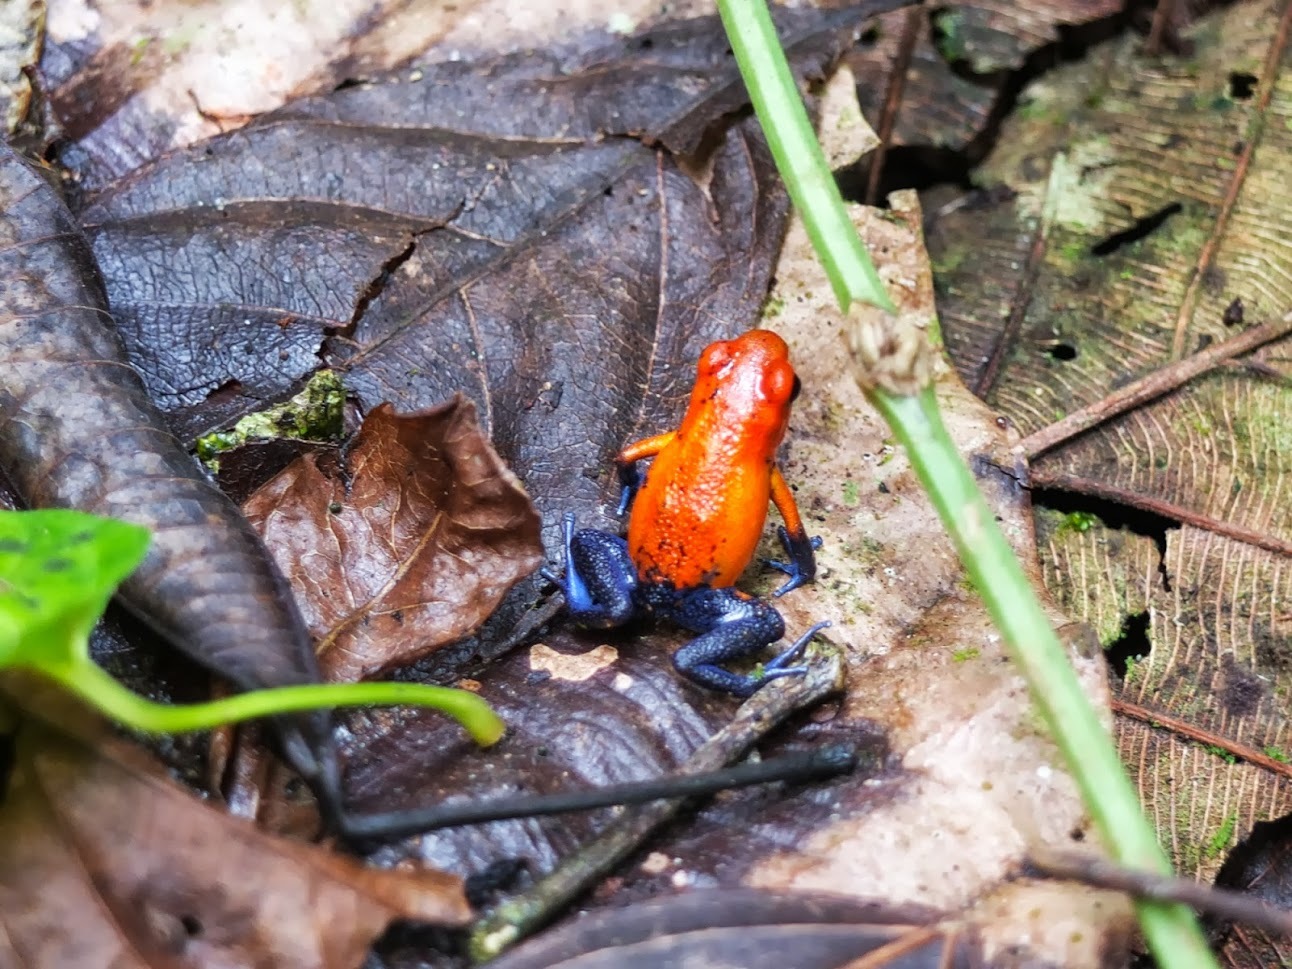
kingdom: Animalia
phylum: Chordata
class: Amphibia
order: Anura
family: Dendrobatidae
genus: Oophaga
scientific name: Oophaga pumilio
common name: Flaming poison frog
